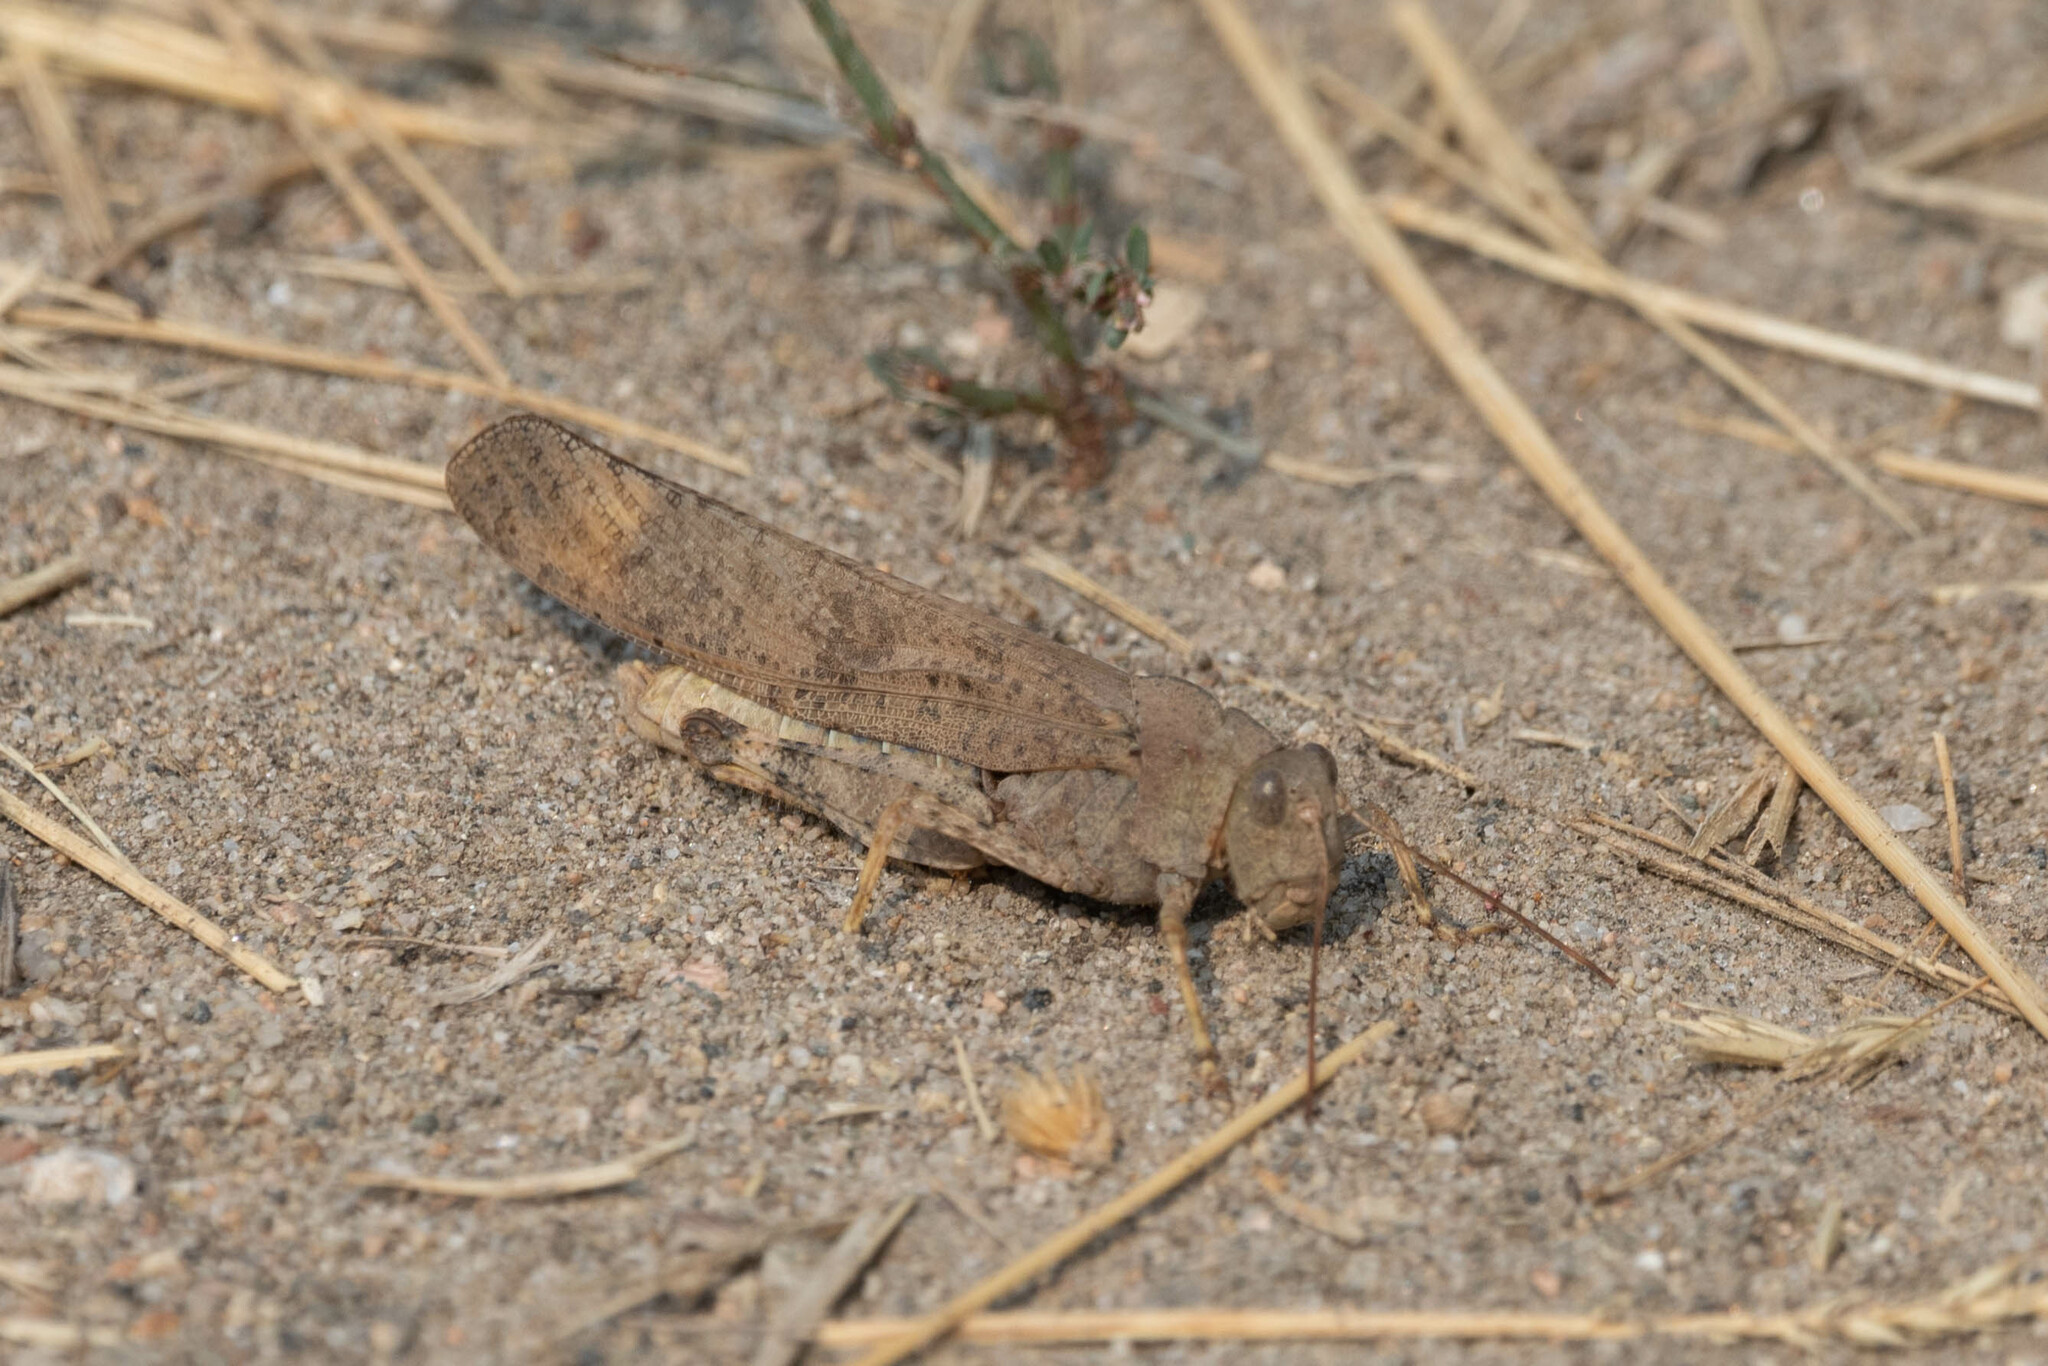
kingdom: Animalia
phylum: Arthropoda
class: Insecta
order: Orthoptera
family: Acrididae
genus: Dissosteira
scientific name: Dissosteira carolina
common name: Carolina grasshopper
